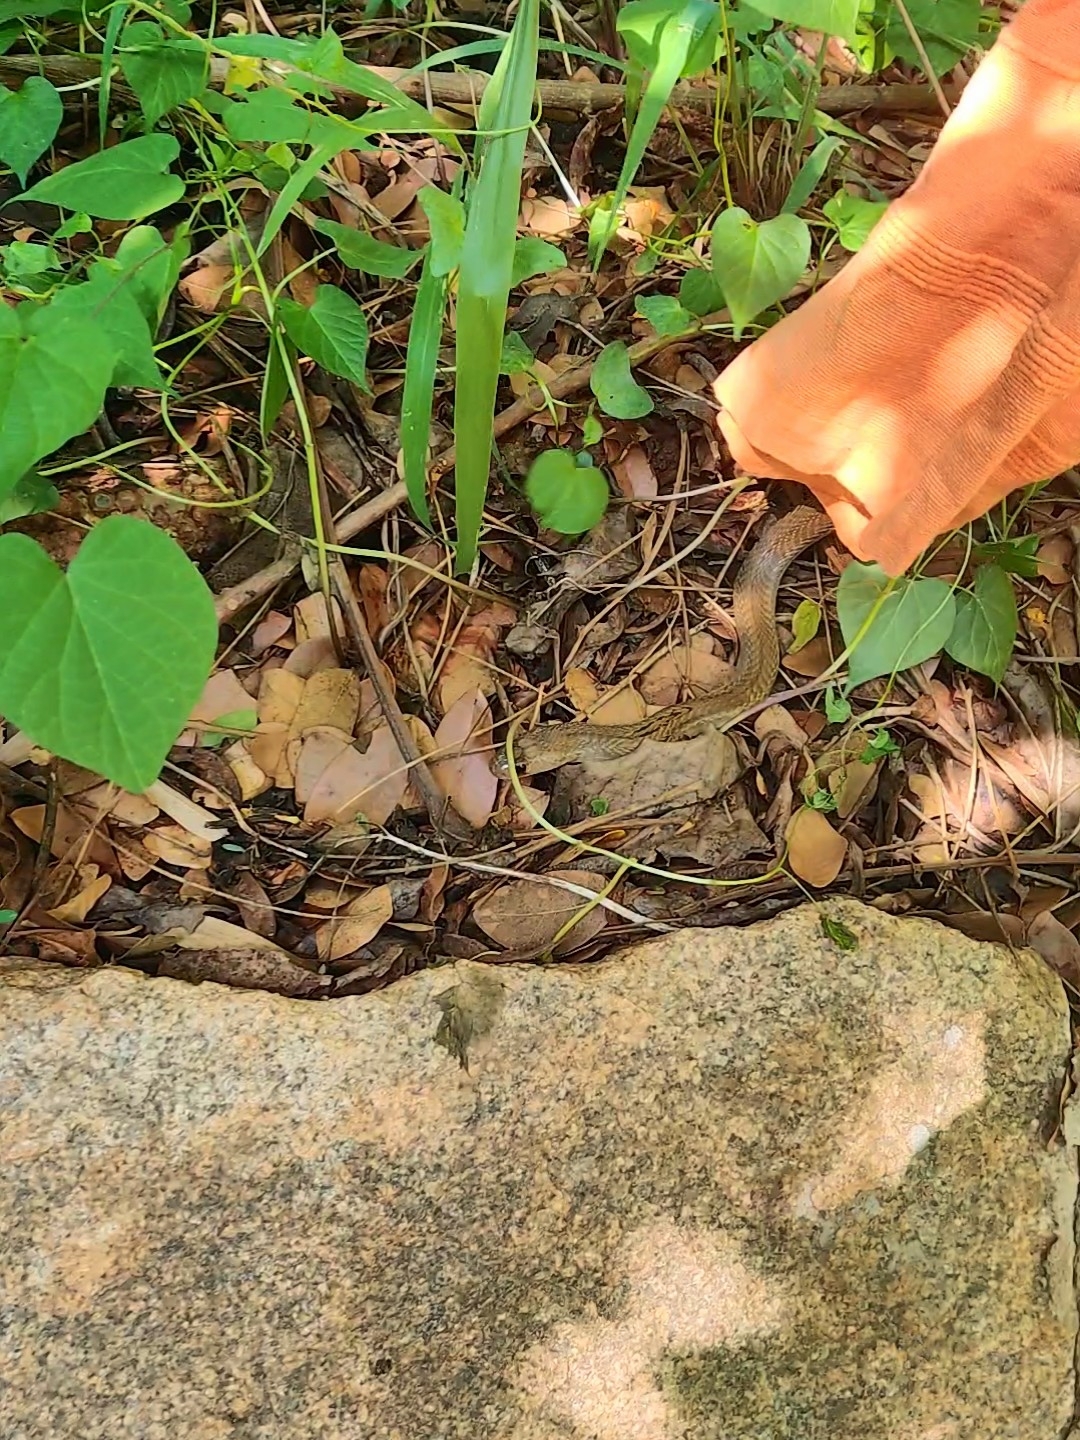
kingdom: Animalia
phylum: Chordata
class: Squamata
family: Elapidae
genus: Naja
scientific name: Naja naja
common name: Indian cobra
